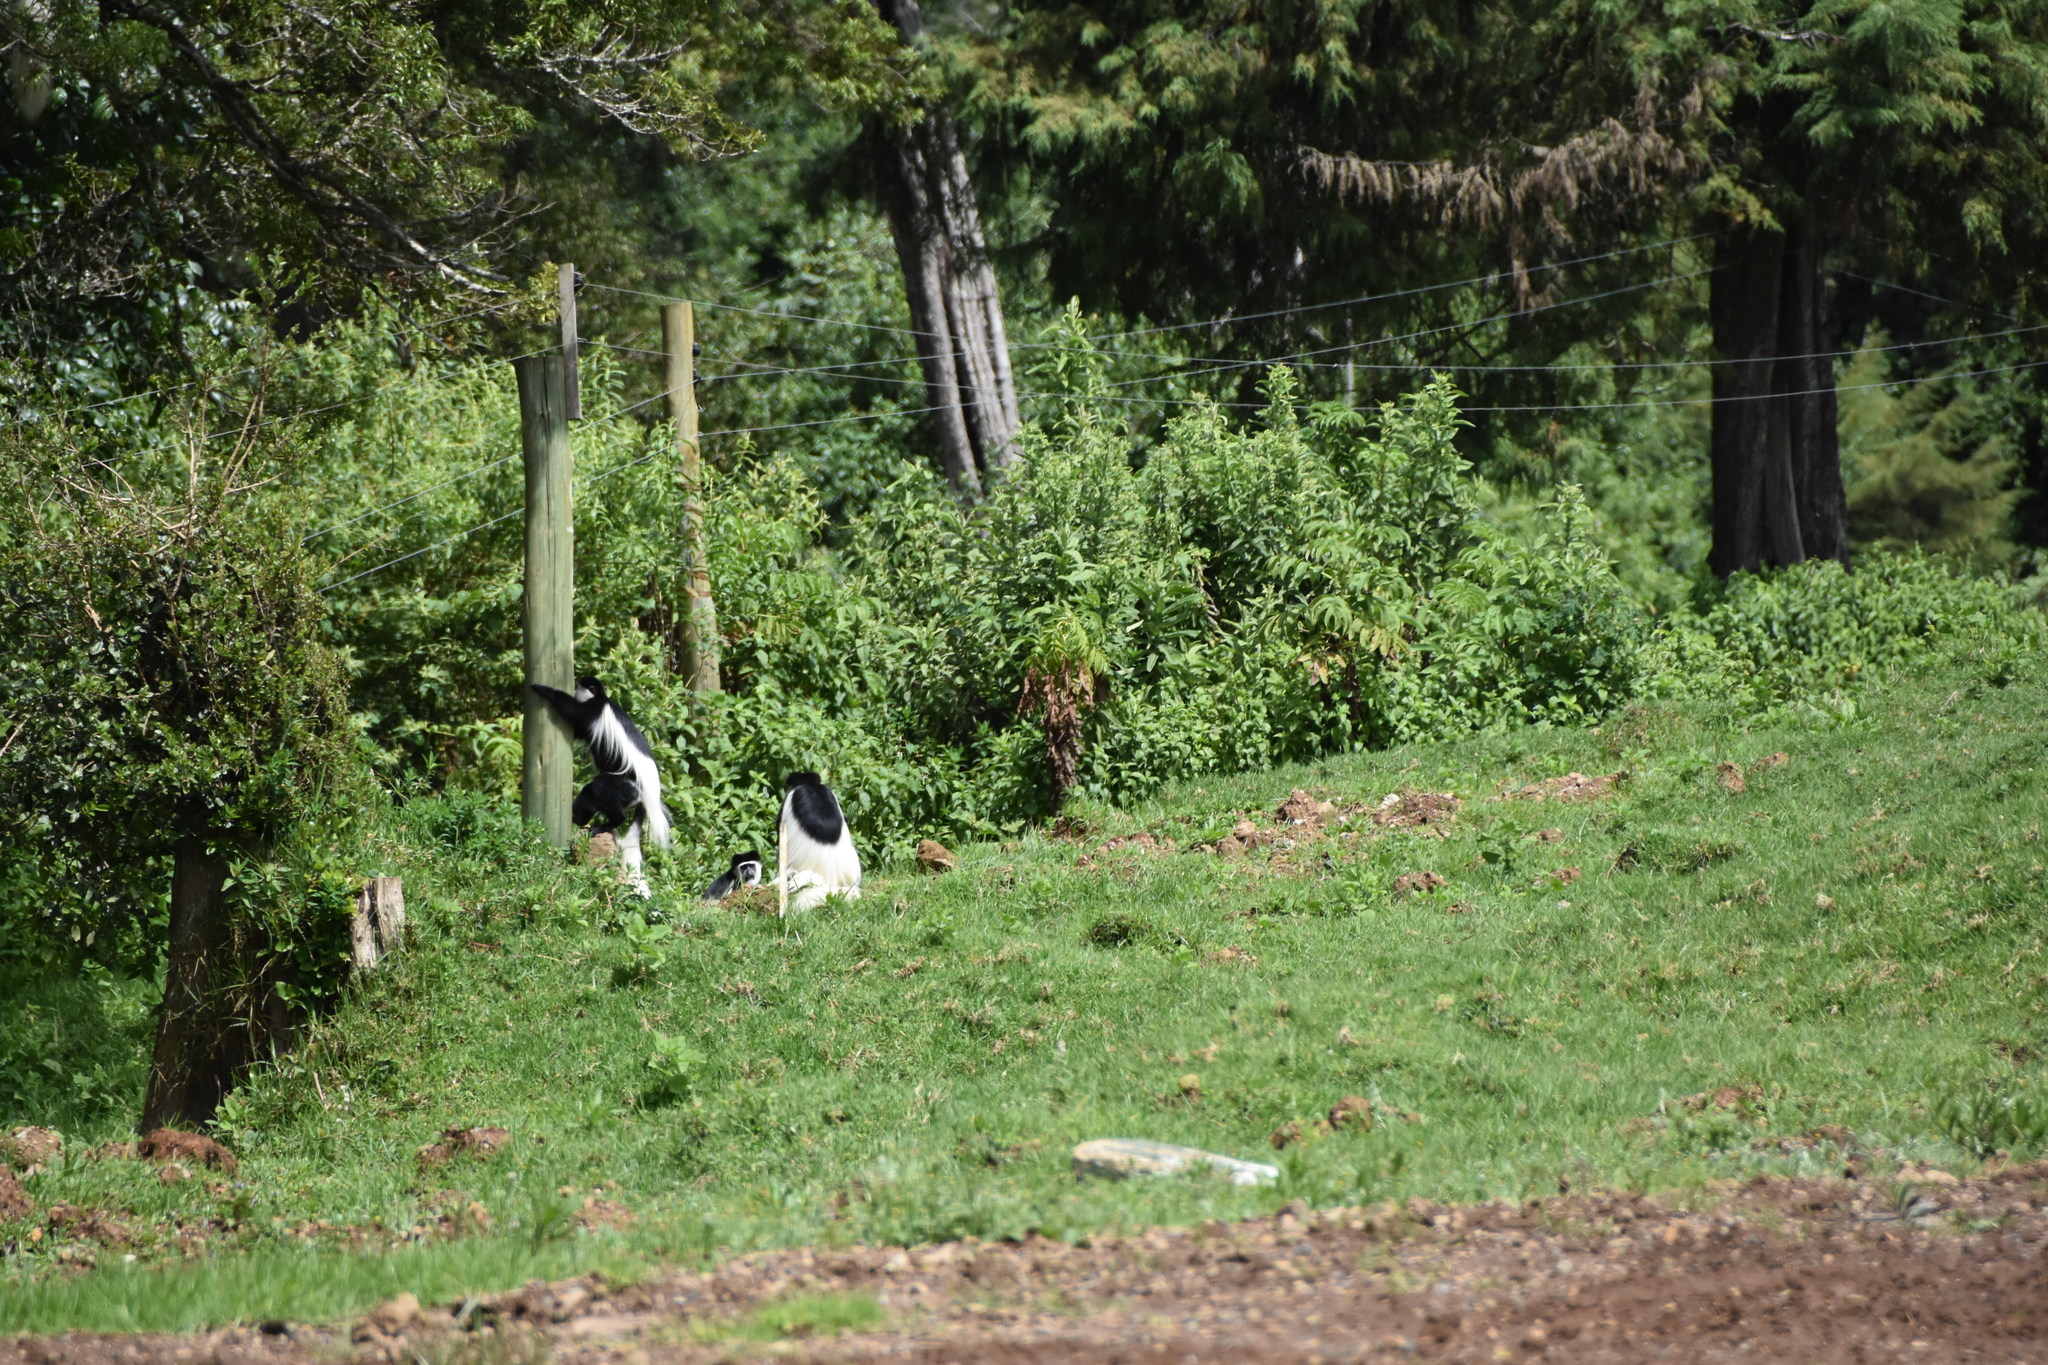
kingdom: Animalia
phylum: Chordata
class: Mammalia
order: Primates
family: Cercopithecidae
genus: Colobus
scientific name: Colobus guereza
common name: Mantled guereza
